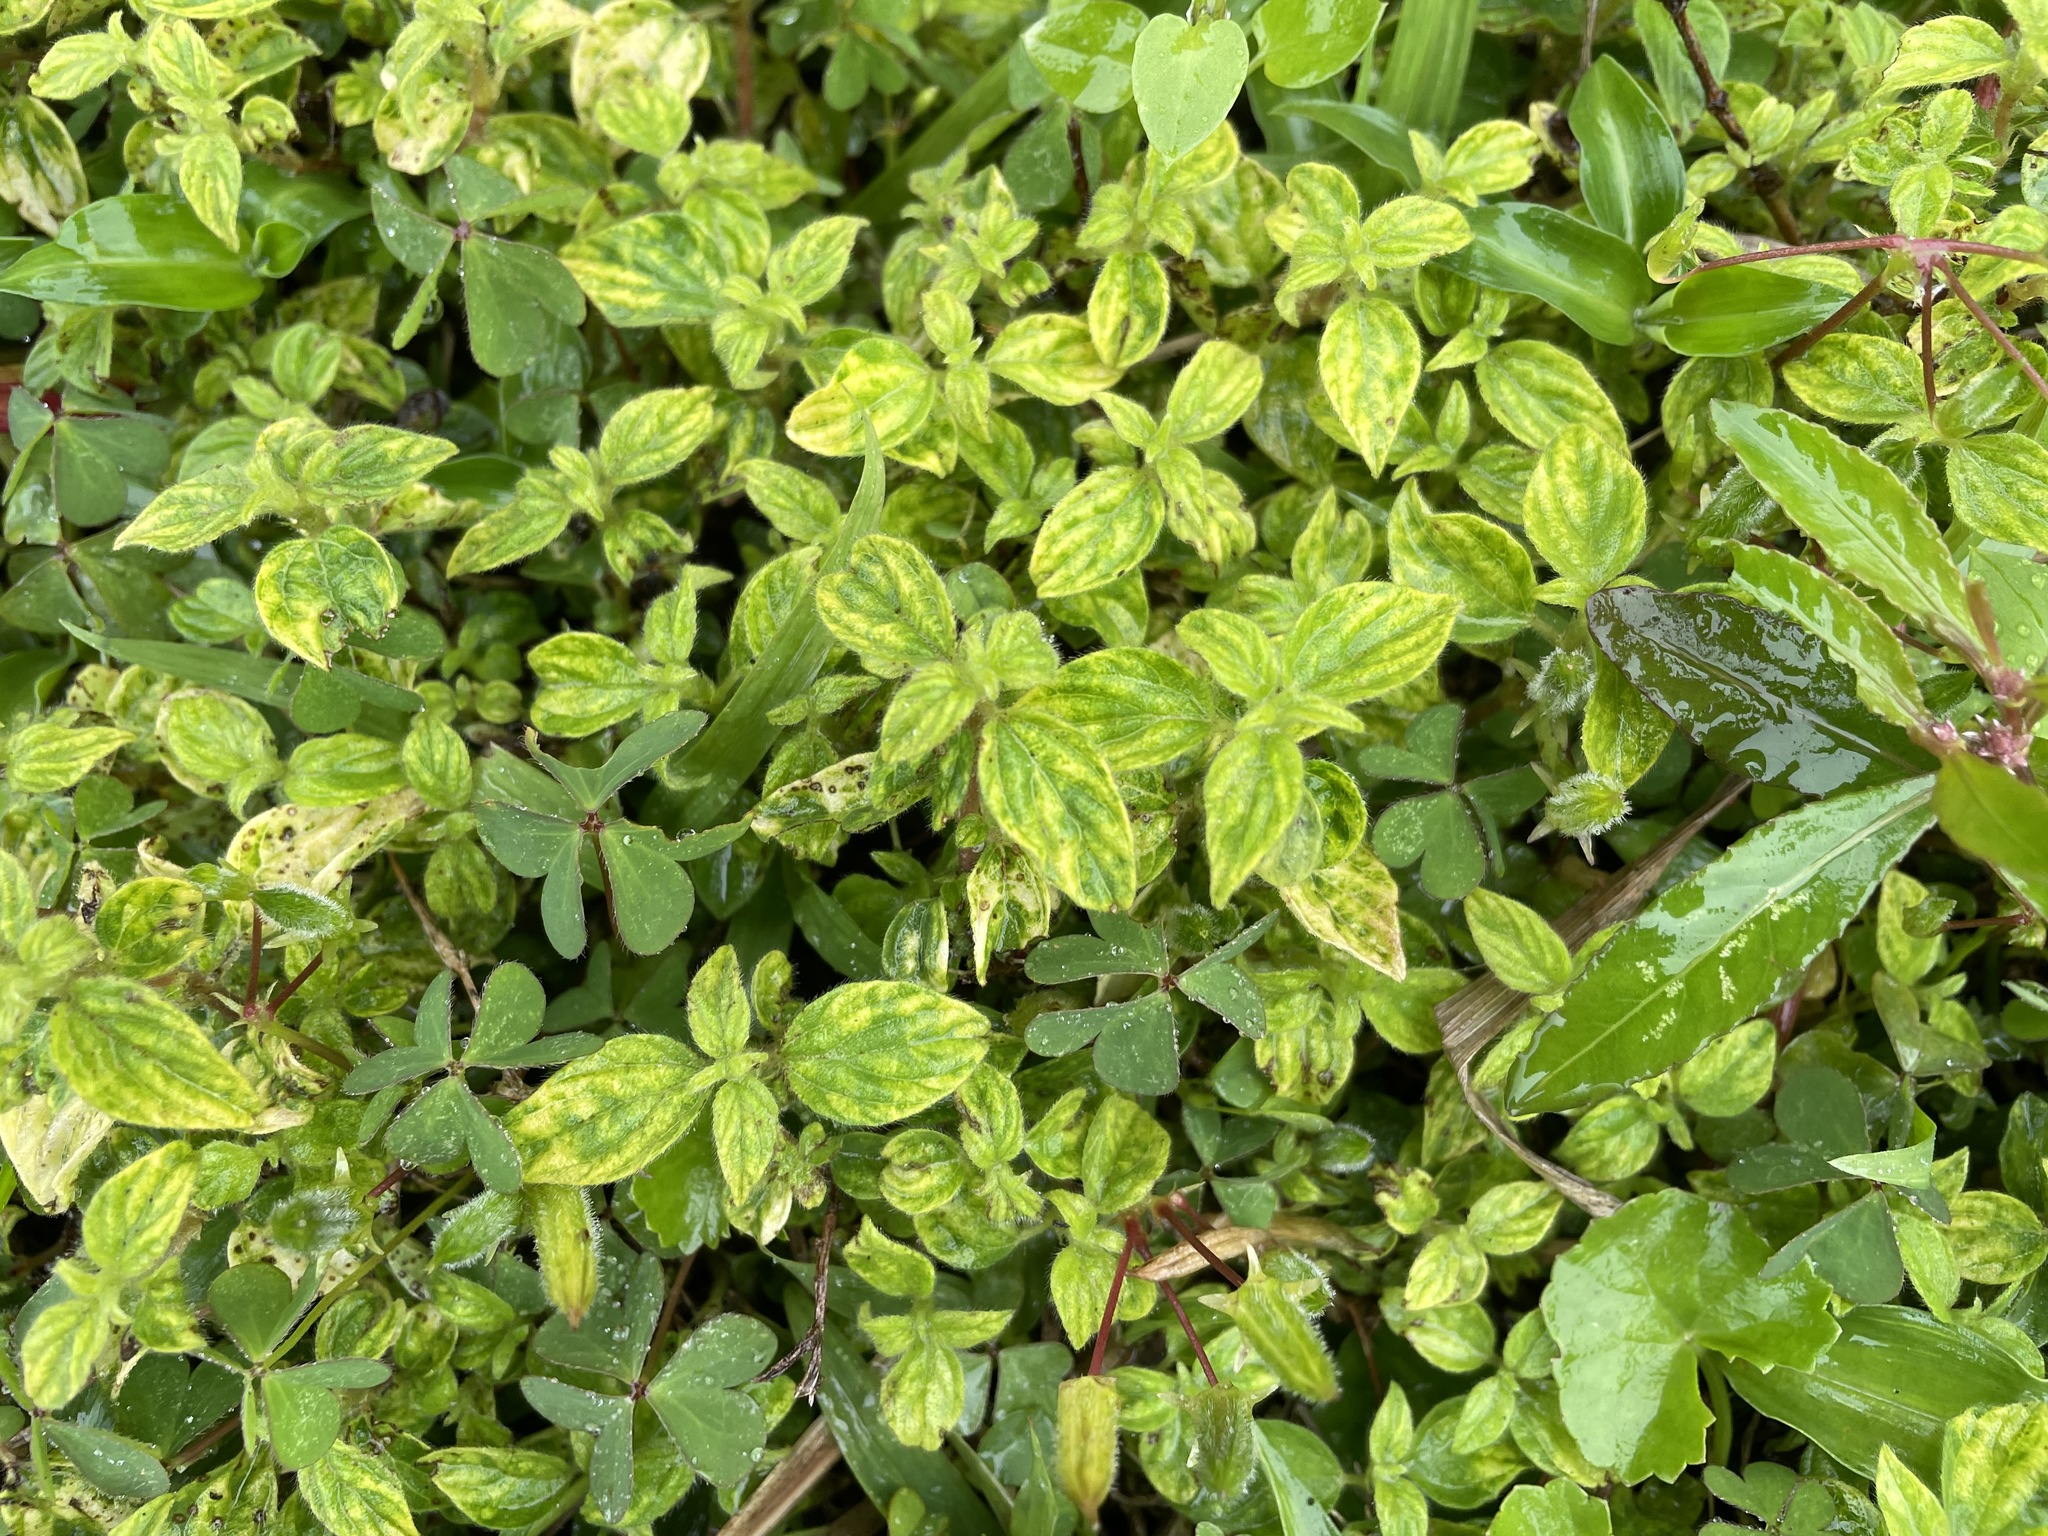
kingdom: Plantae
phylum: Tracheophyta
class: Magnoliopsida
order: Rosales
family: Urticaceae
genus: Pouzolzia
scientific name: Pouzolzia zeylanica
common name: Graceful pouzolzsbush
